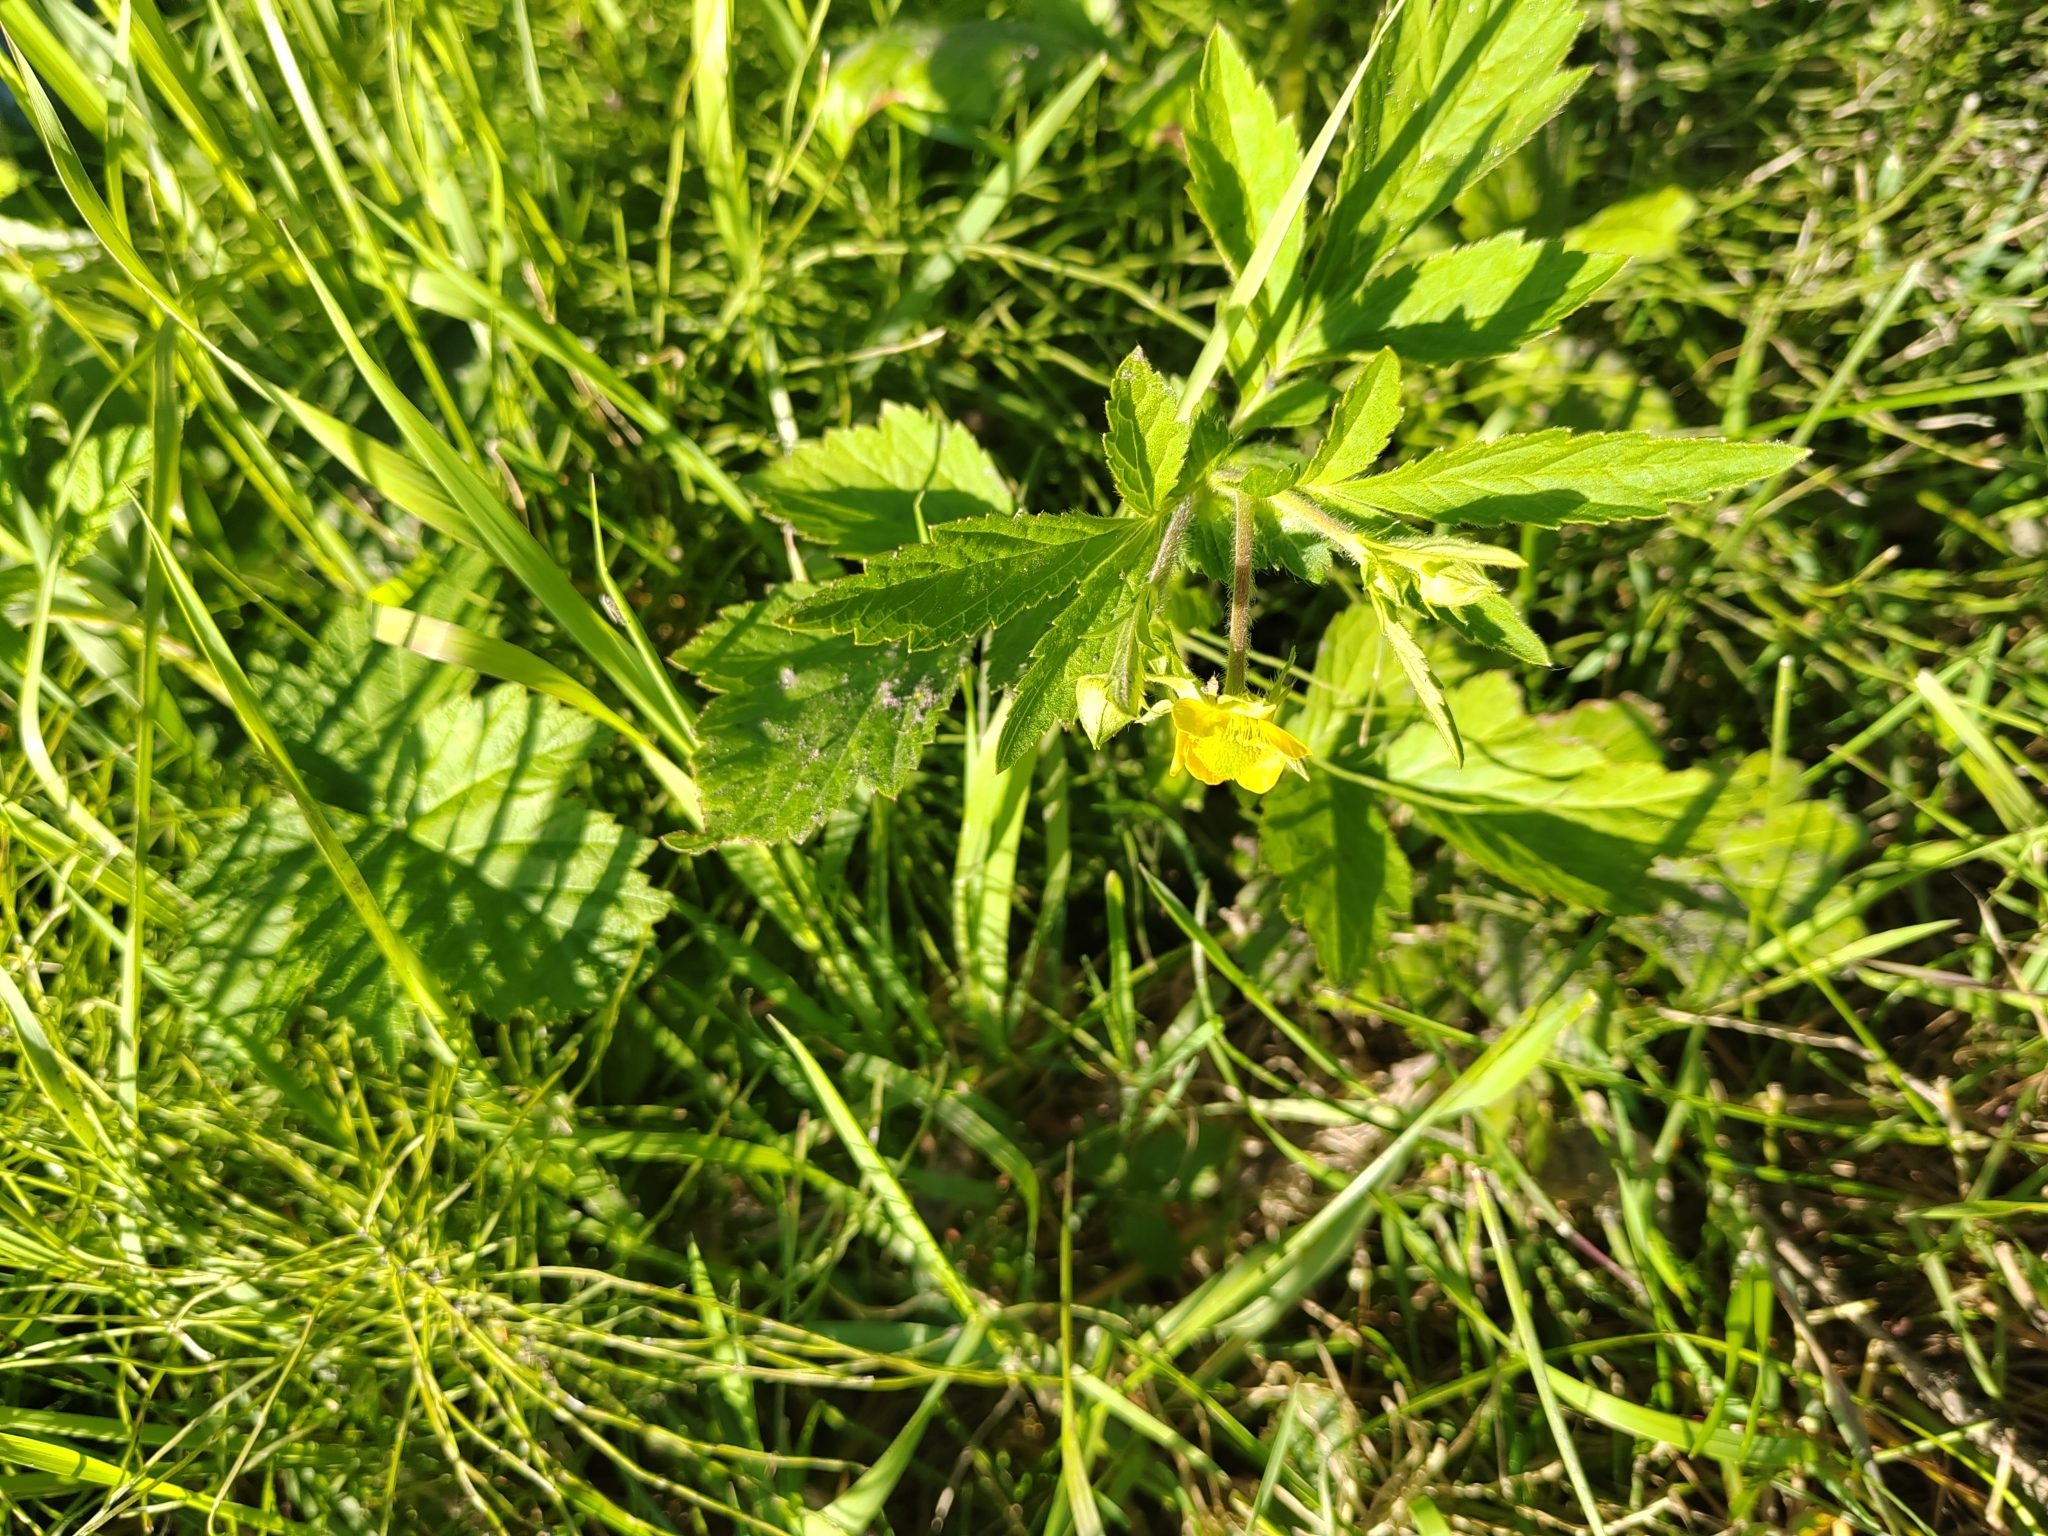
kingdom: Plantae
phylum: Tracheophyta
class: Magnoliopsida
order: Rosales
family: Rosaceae
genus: Geum
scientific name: Geum aleppicum
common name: Yellow avens
